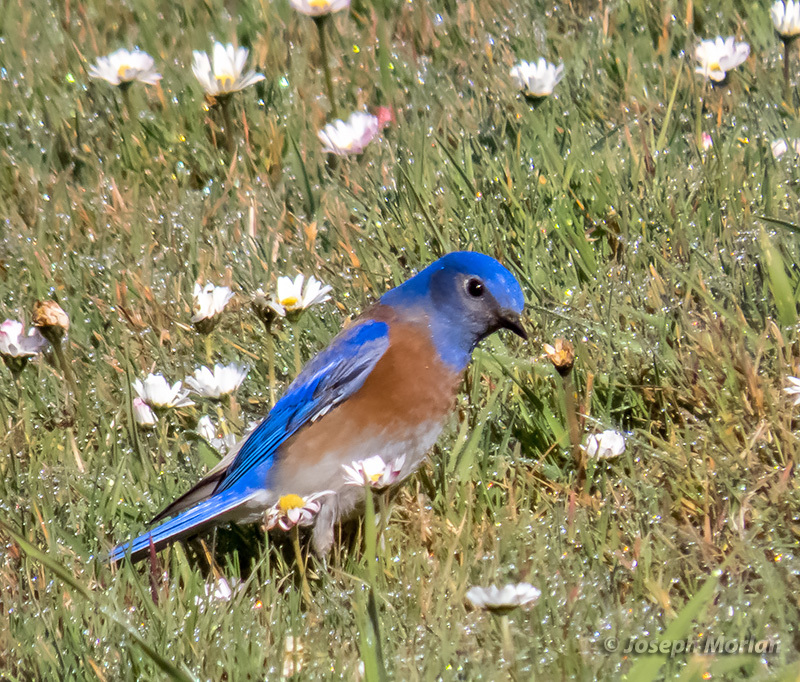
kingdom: Animalia
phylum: Chordata
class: Aves
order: Passeriformes
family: Turdidae
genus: Sialia
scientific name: Sialia mexicana
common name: Western bluebird
